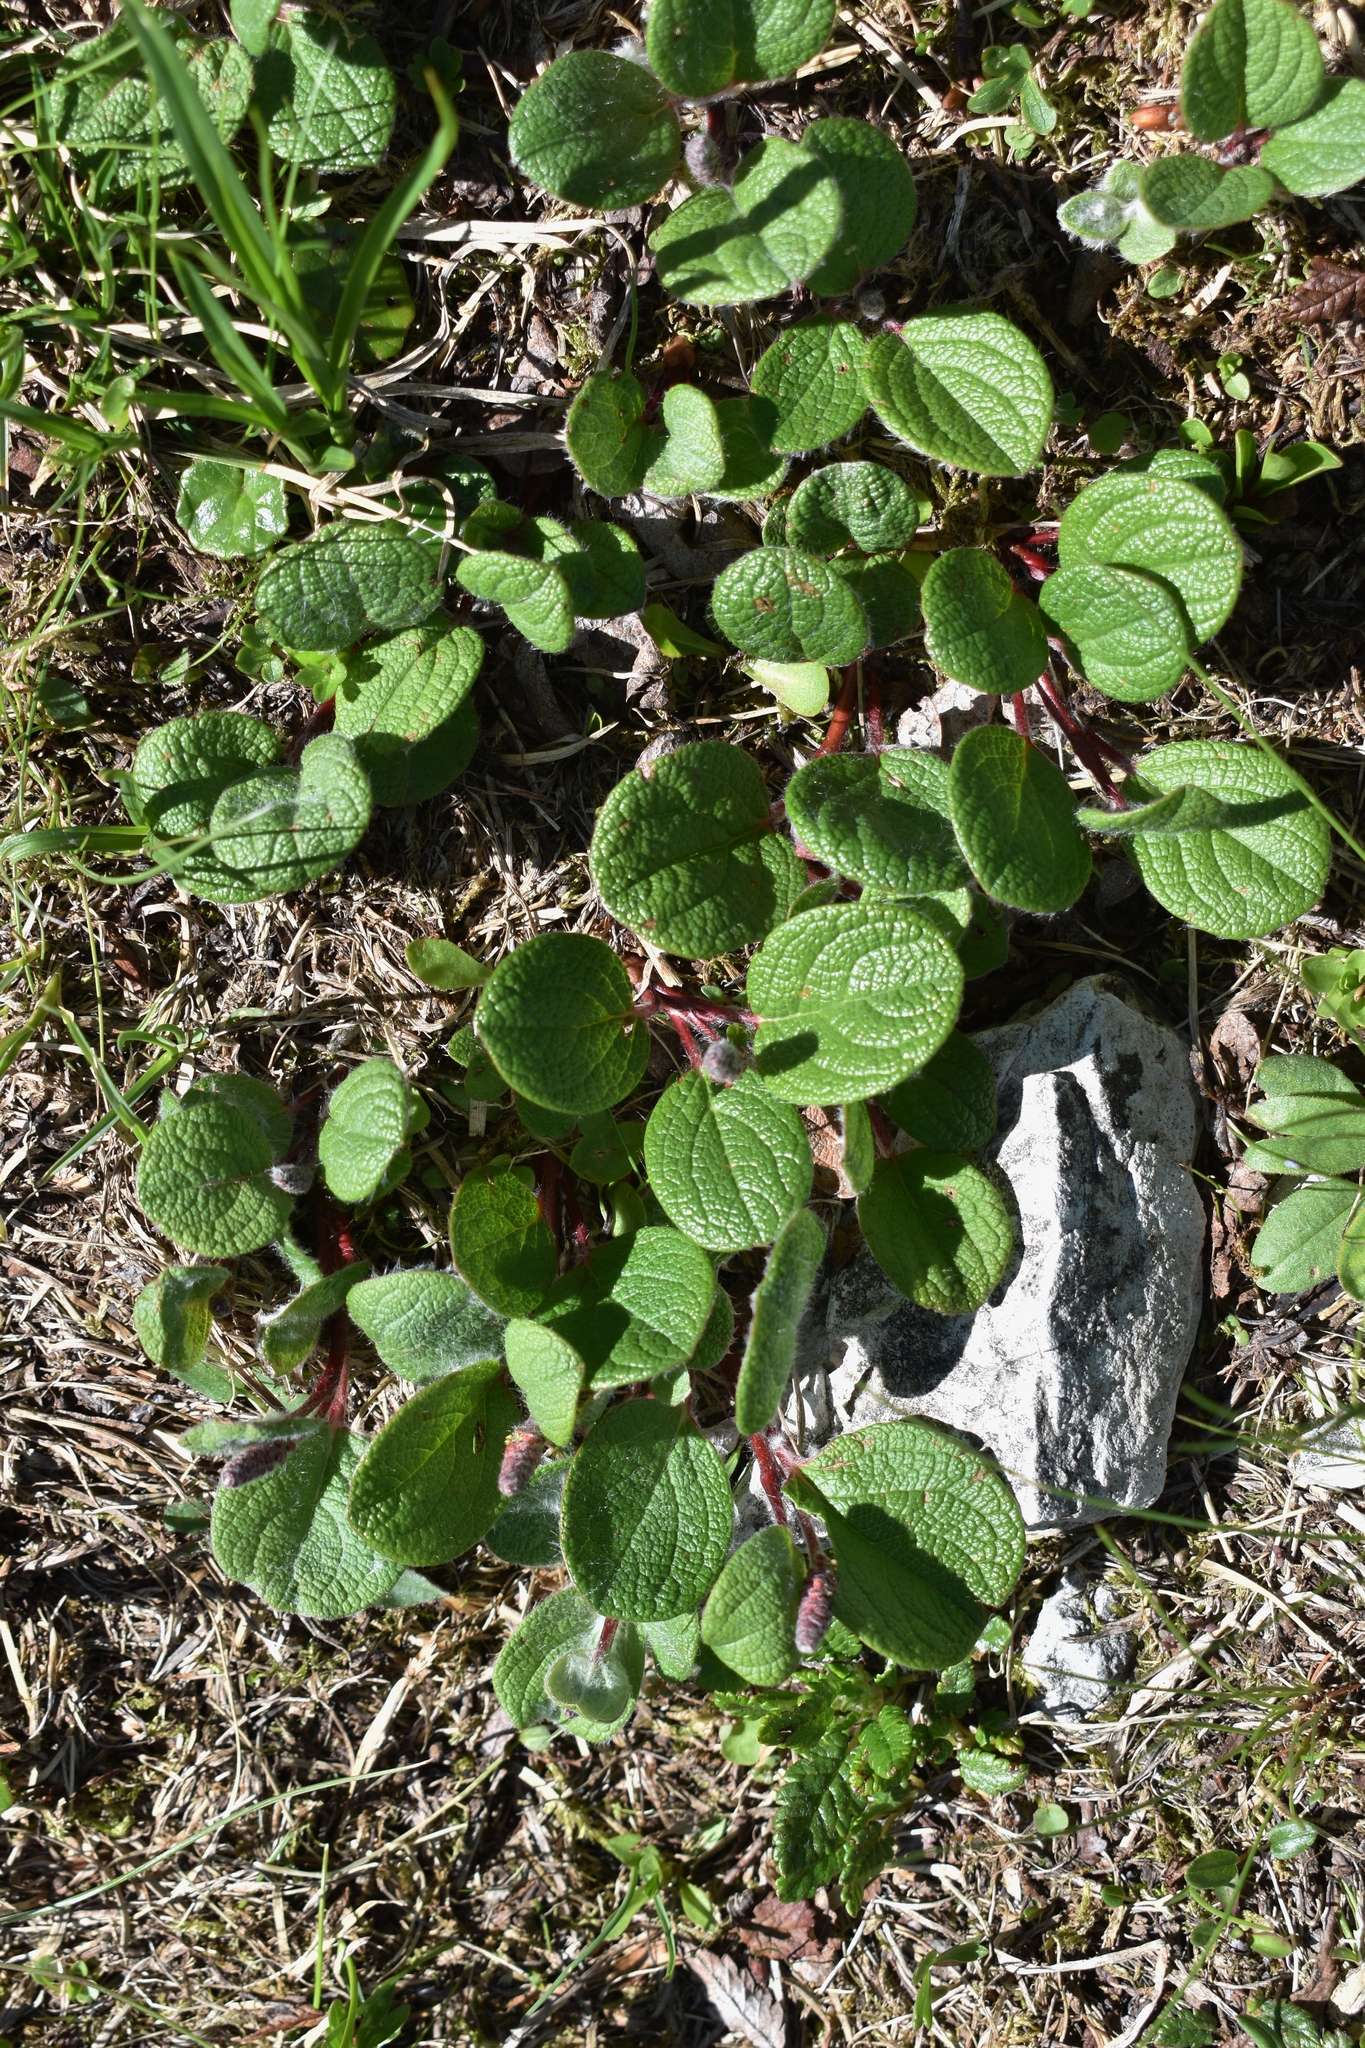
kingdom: Plantae
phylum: Tracheophyta
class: Magnoliopsida
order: Malpighiales
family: Salicaceae
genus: Salix
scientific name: Salix reticulata
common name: Net-leaved willow
